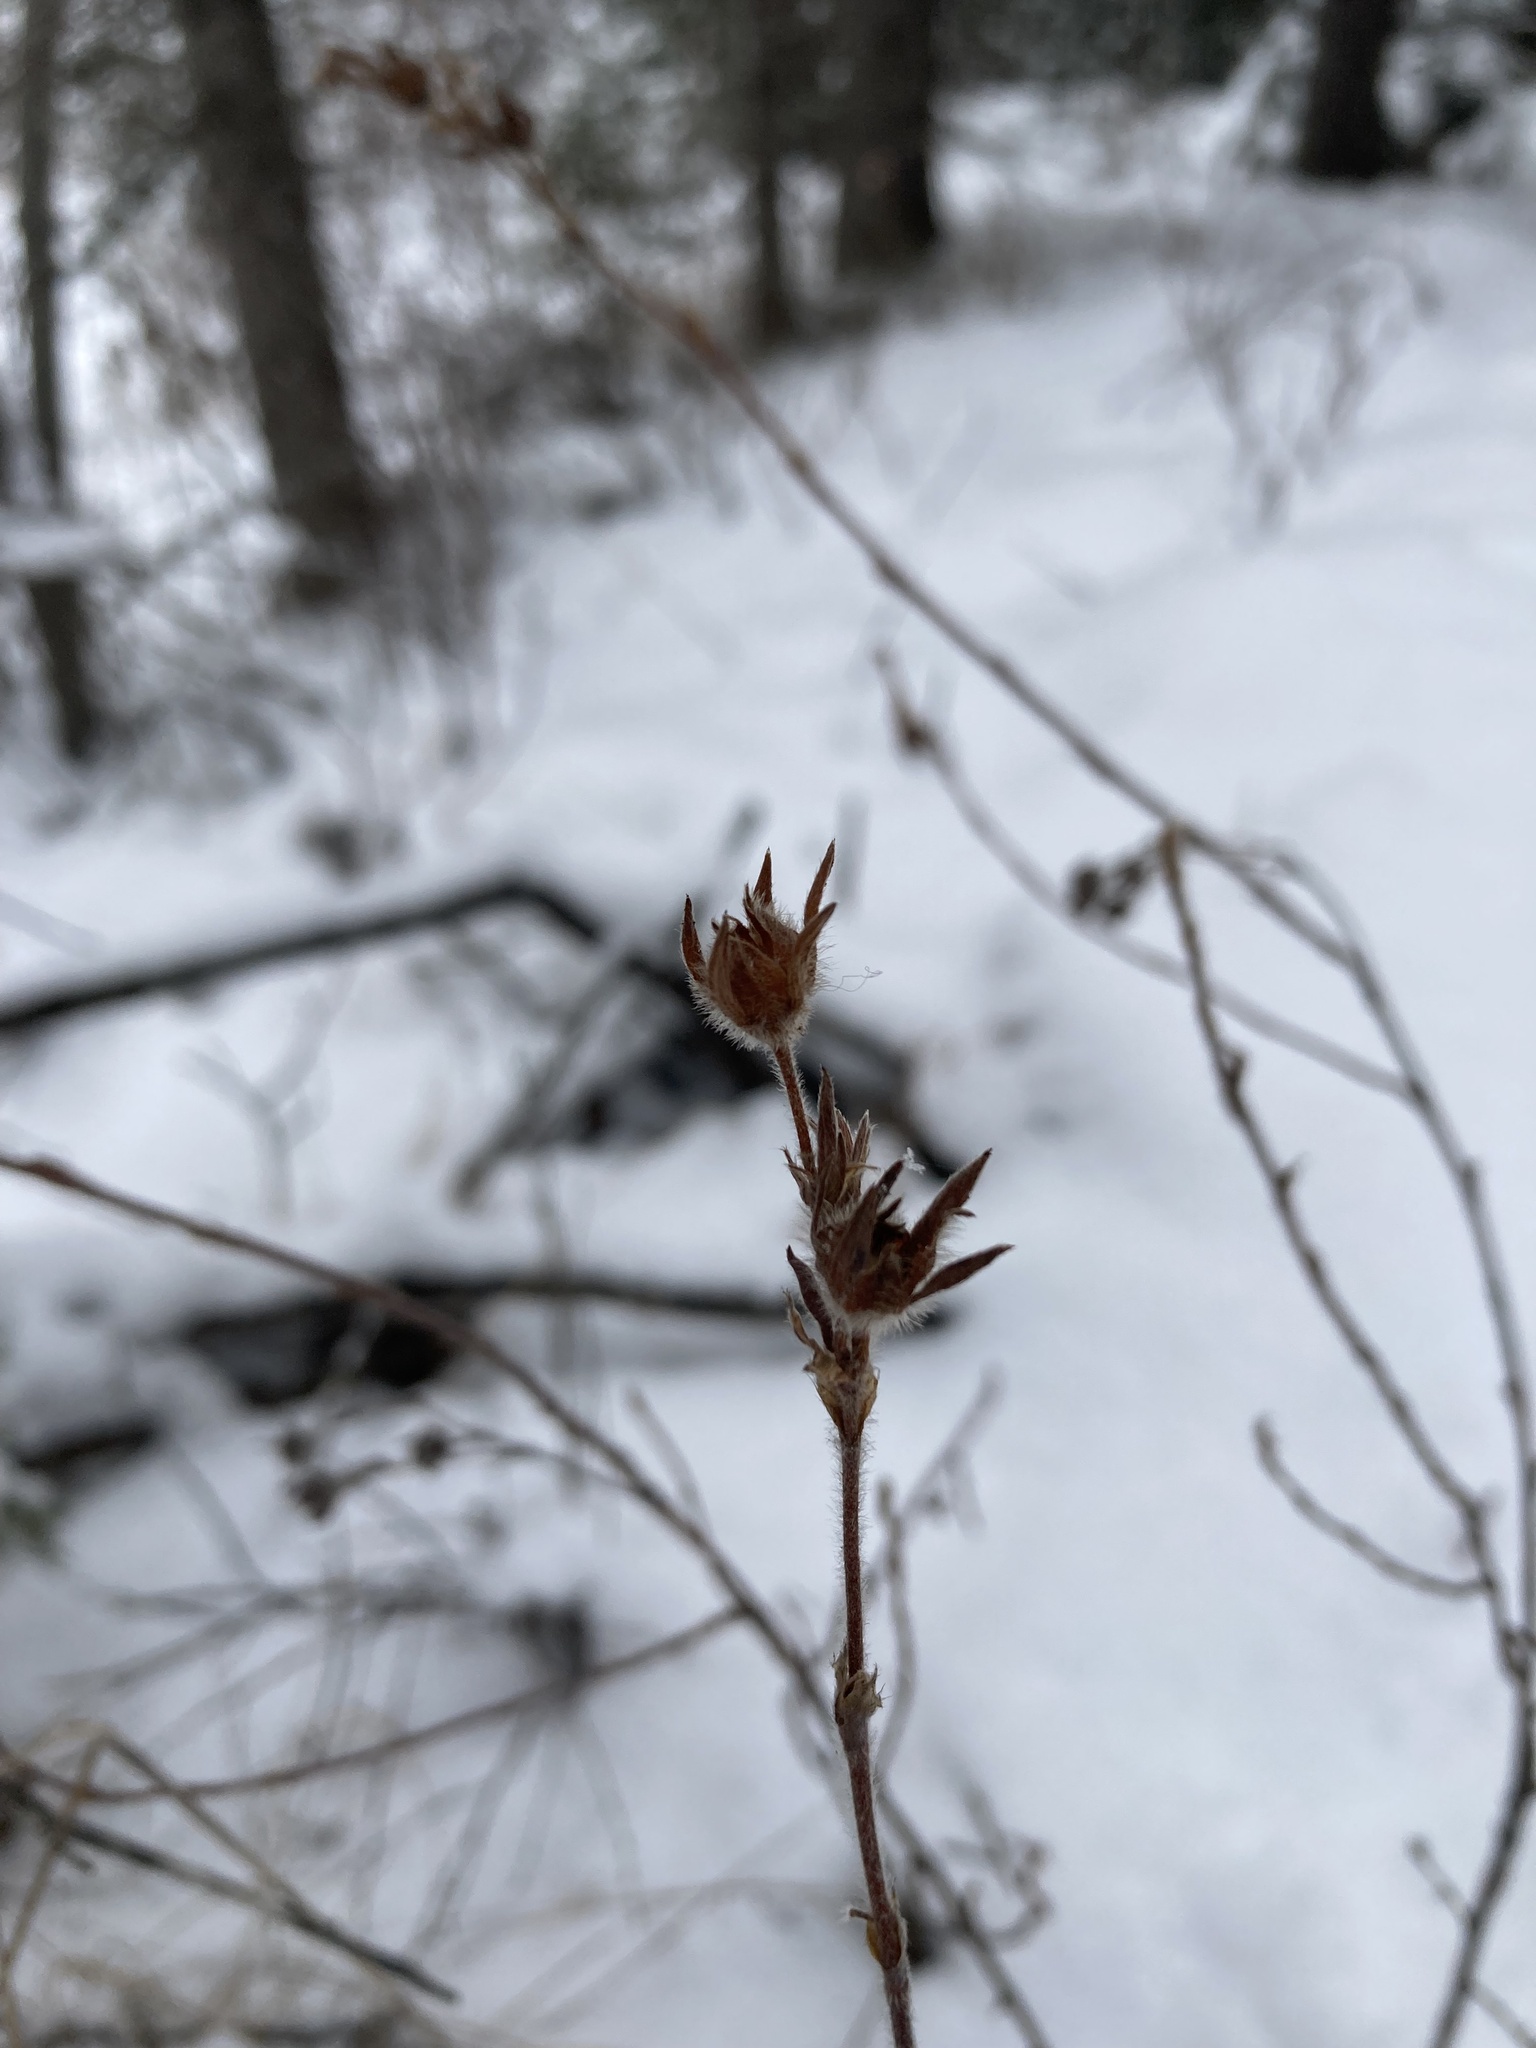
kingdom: Plantae
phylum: Tracheophyta
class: Magnoliopsida
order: Rosales
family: Rosaceae
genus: Dasiphora
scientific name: Dasiphora fruticosa
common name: Shrubby cinquefoil
